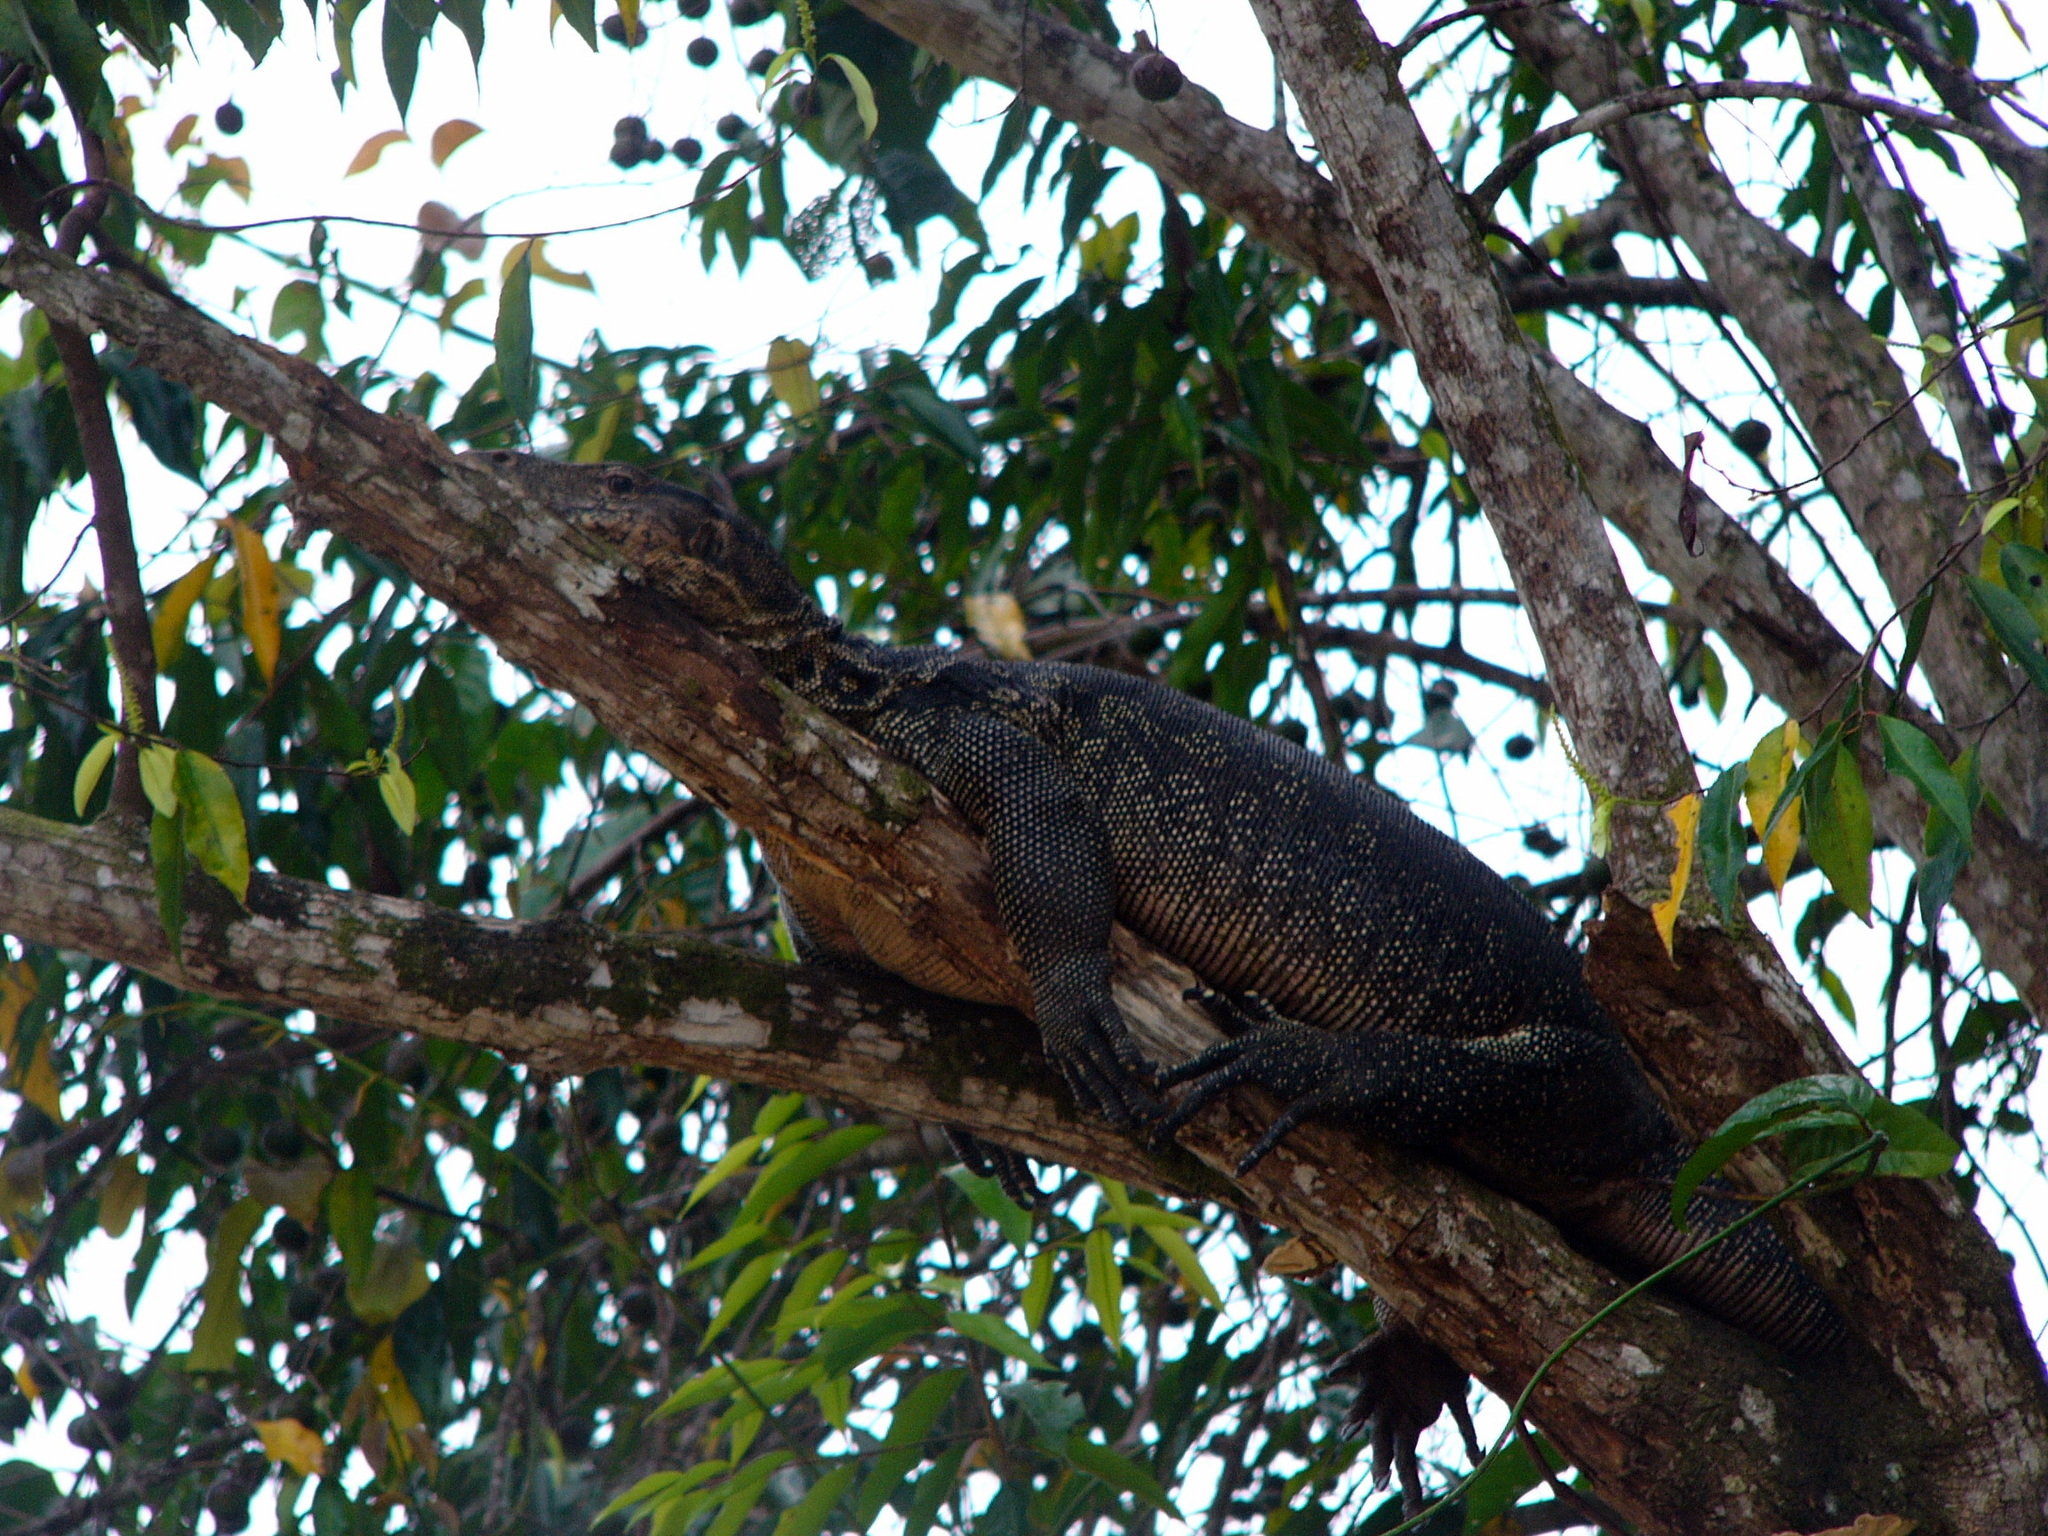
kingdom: Animalia
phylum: Chordata
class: Squamata
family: Varanidae
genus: Varanus
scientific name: Varanus salvator
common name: Common water monitor
